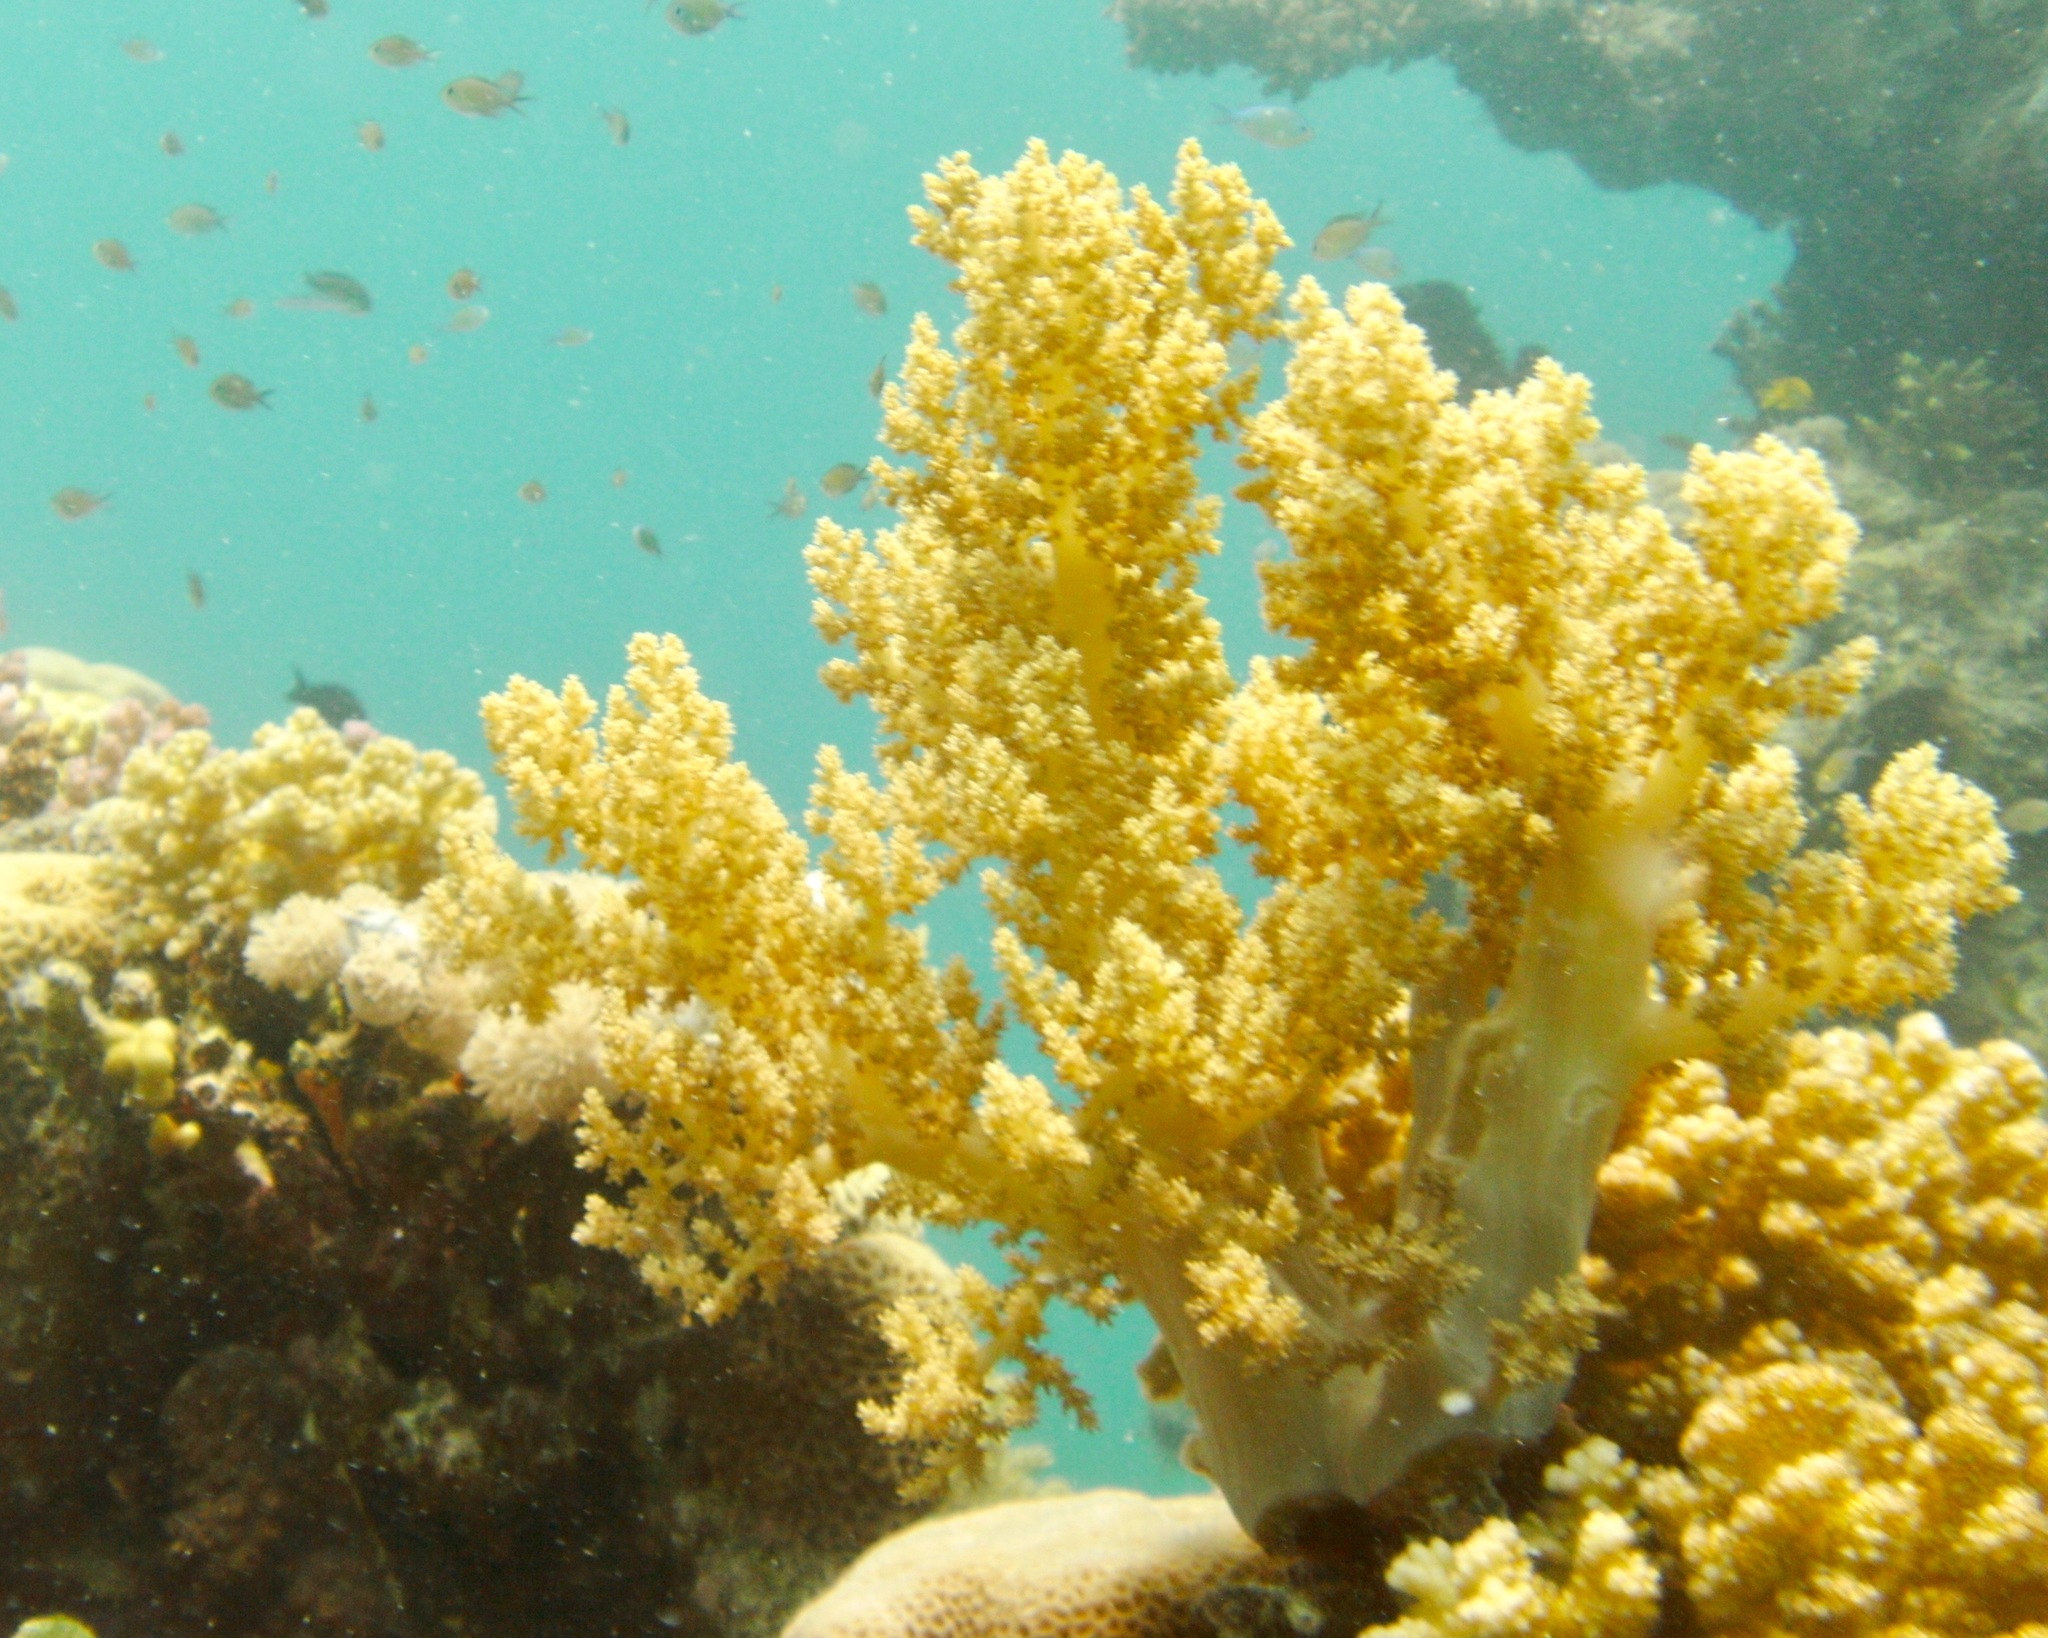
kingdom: Animalia
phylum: Cnidaria
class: Anthozoa
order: Malacalcyonacea
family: Nephtheidae
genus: Litophyton
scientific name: Litophyton arboreum
